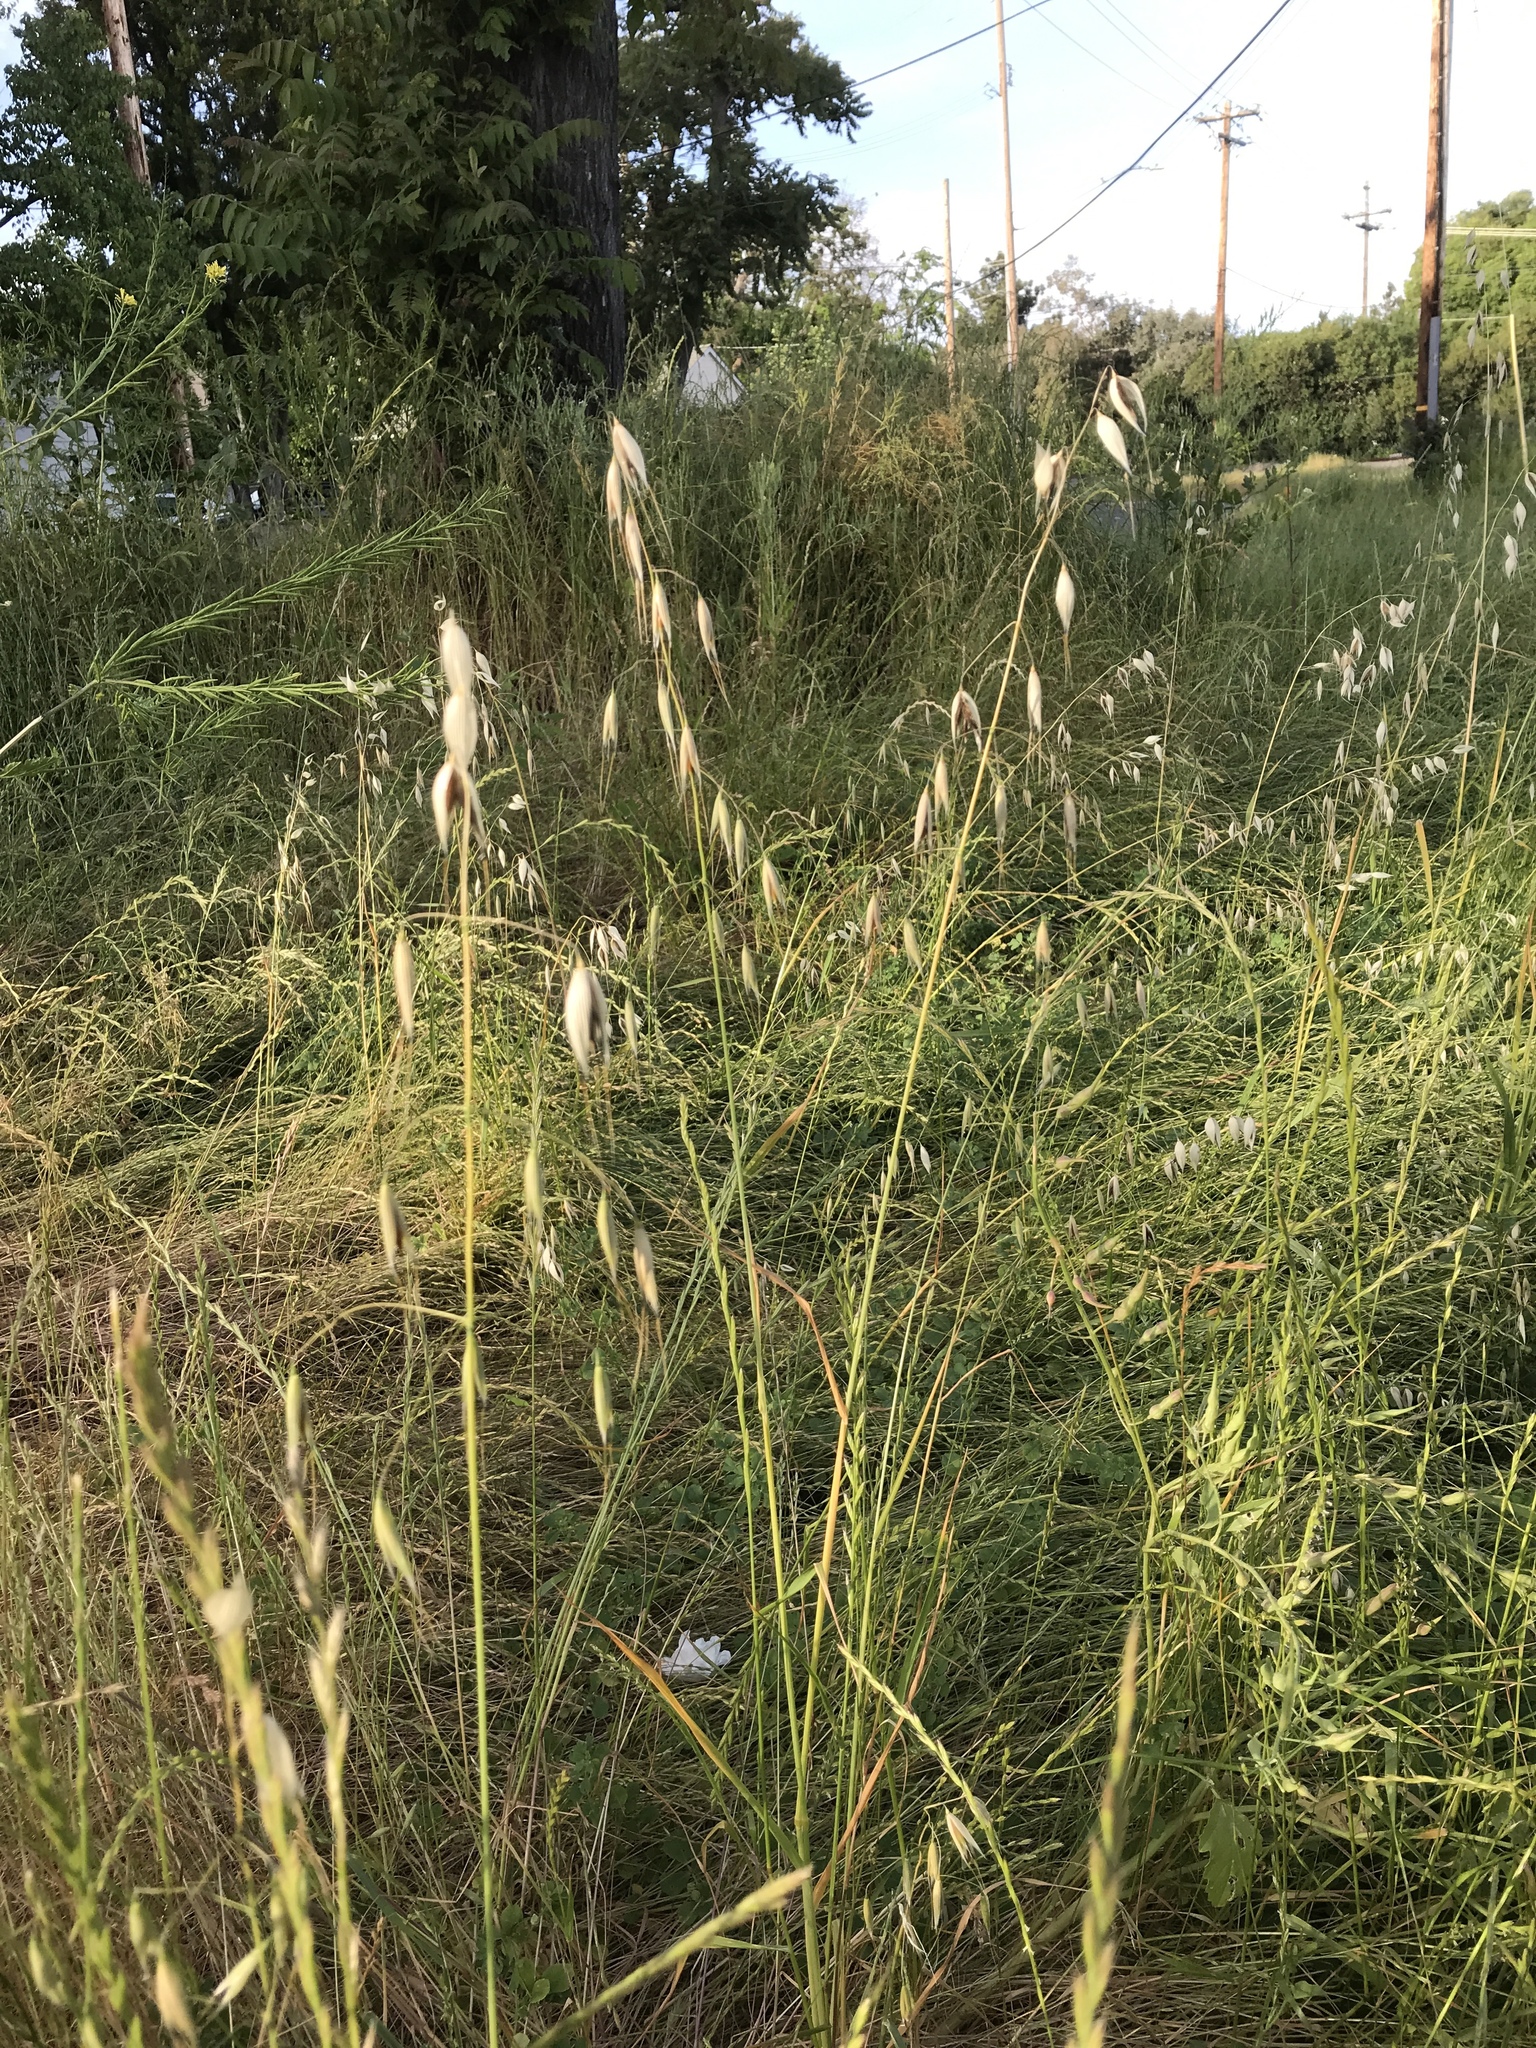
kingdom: Plantae
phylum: Tracheophyta
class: Liliopsida
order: Poales
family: Poaceae
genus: Avena
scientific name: Avena fatua
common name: Wild oat
